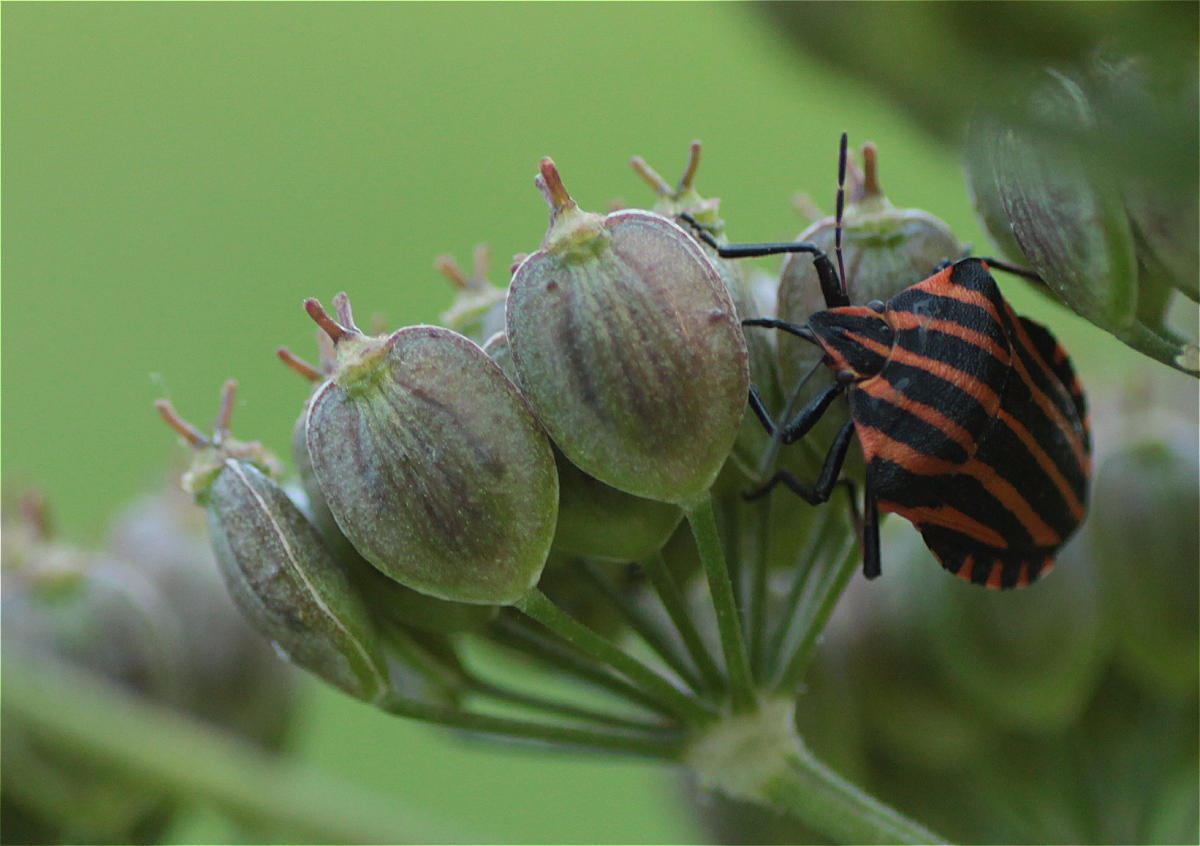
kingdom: Animalia
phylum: Arthropoda
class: Insecta
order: Hemiptera
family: Pentatomidae
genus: Graphosoma
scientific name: Graphosoma italicum
